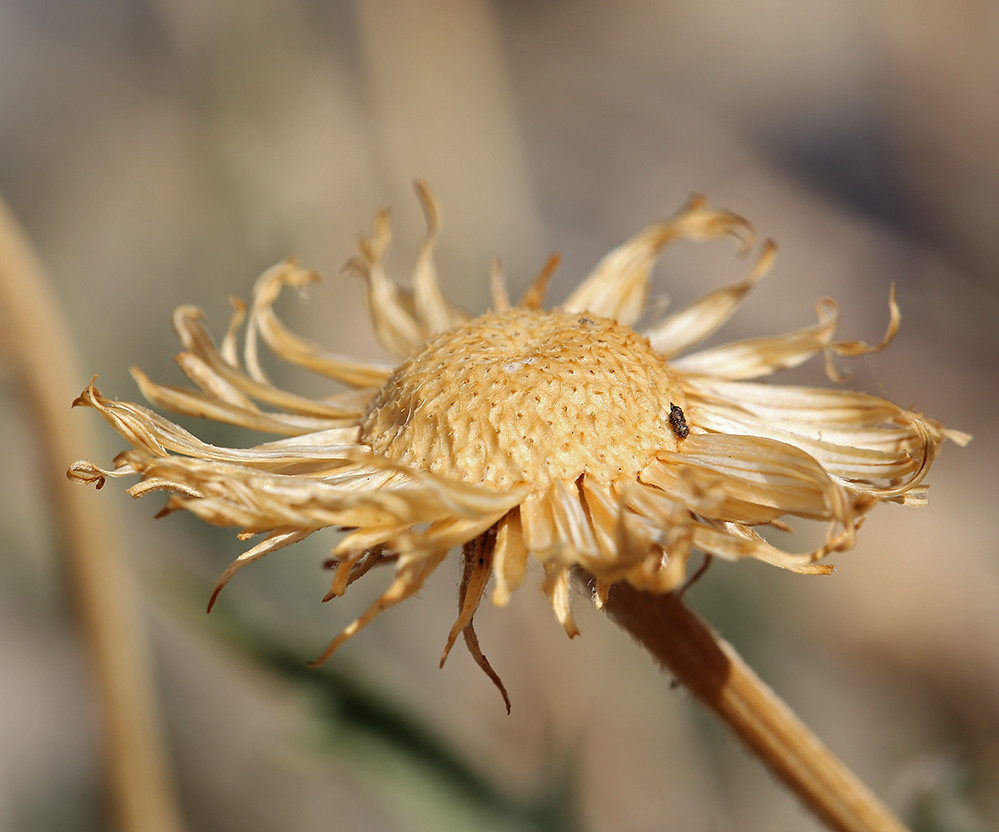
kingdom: Plantae
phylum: Tracheophyta
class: Magnoliopsida
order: Asterales
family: Asteraceae
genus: Xylorhiza
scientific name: Xylorhiza tortifolia
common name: Hurt-leaf woody-aster
